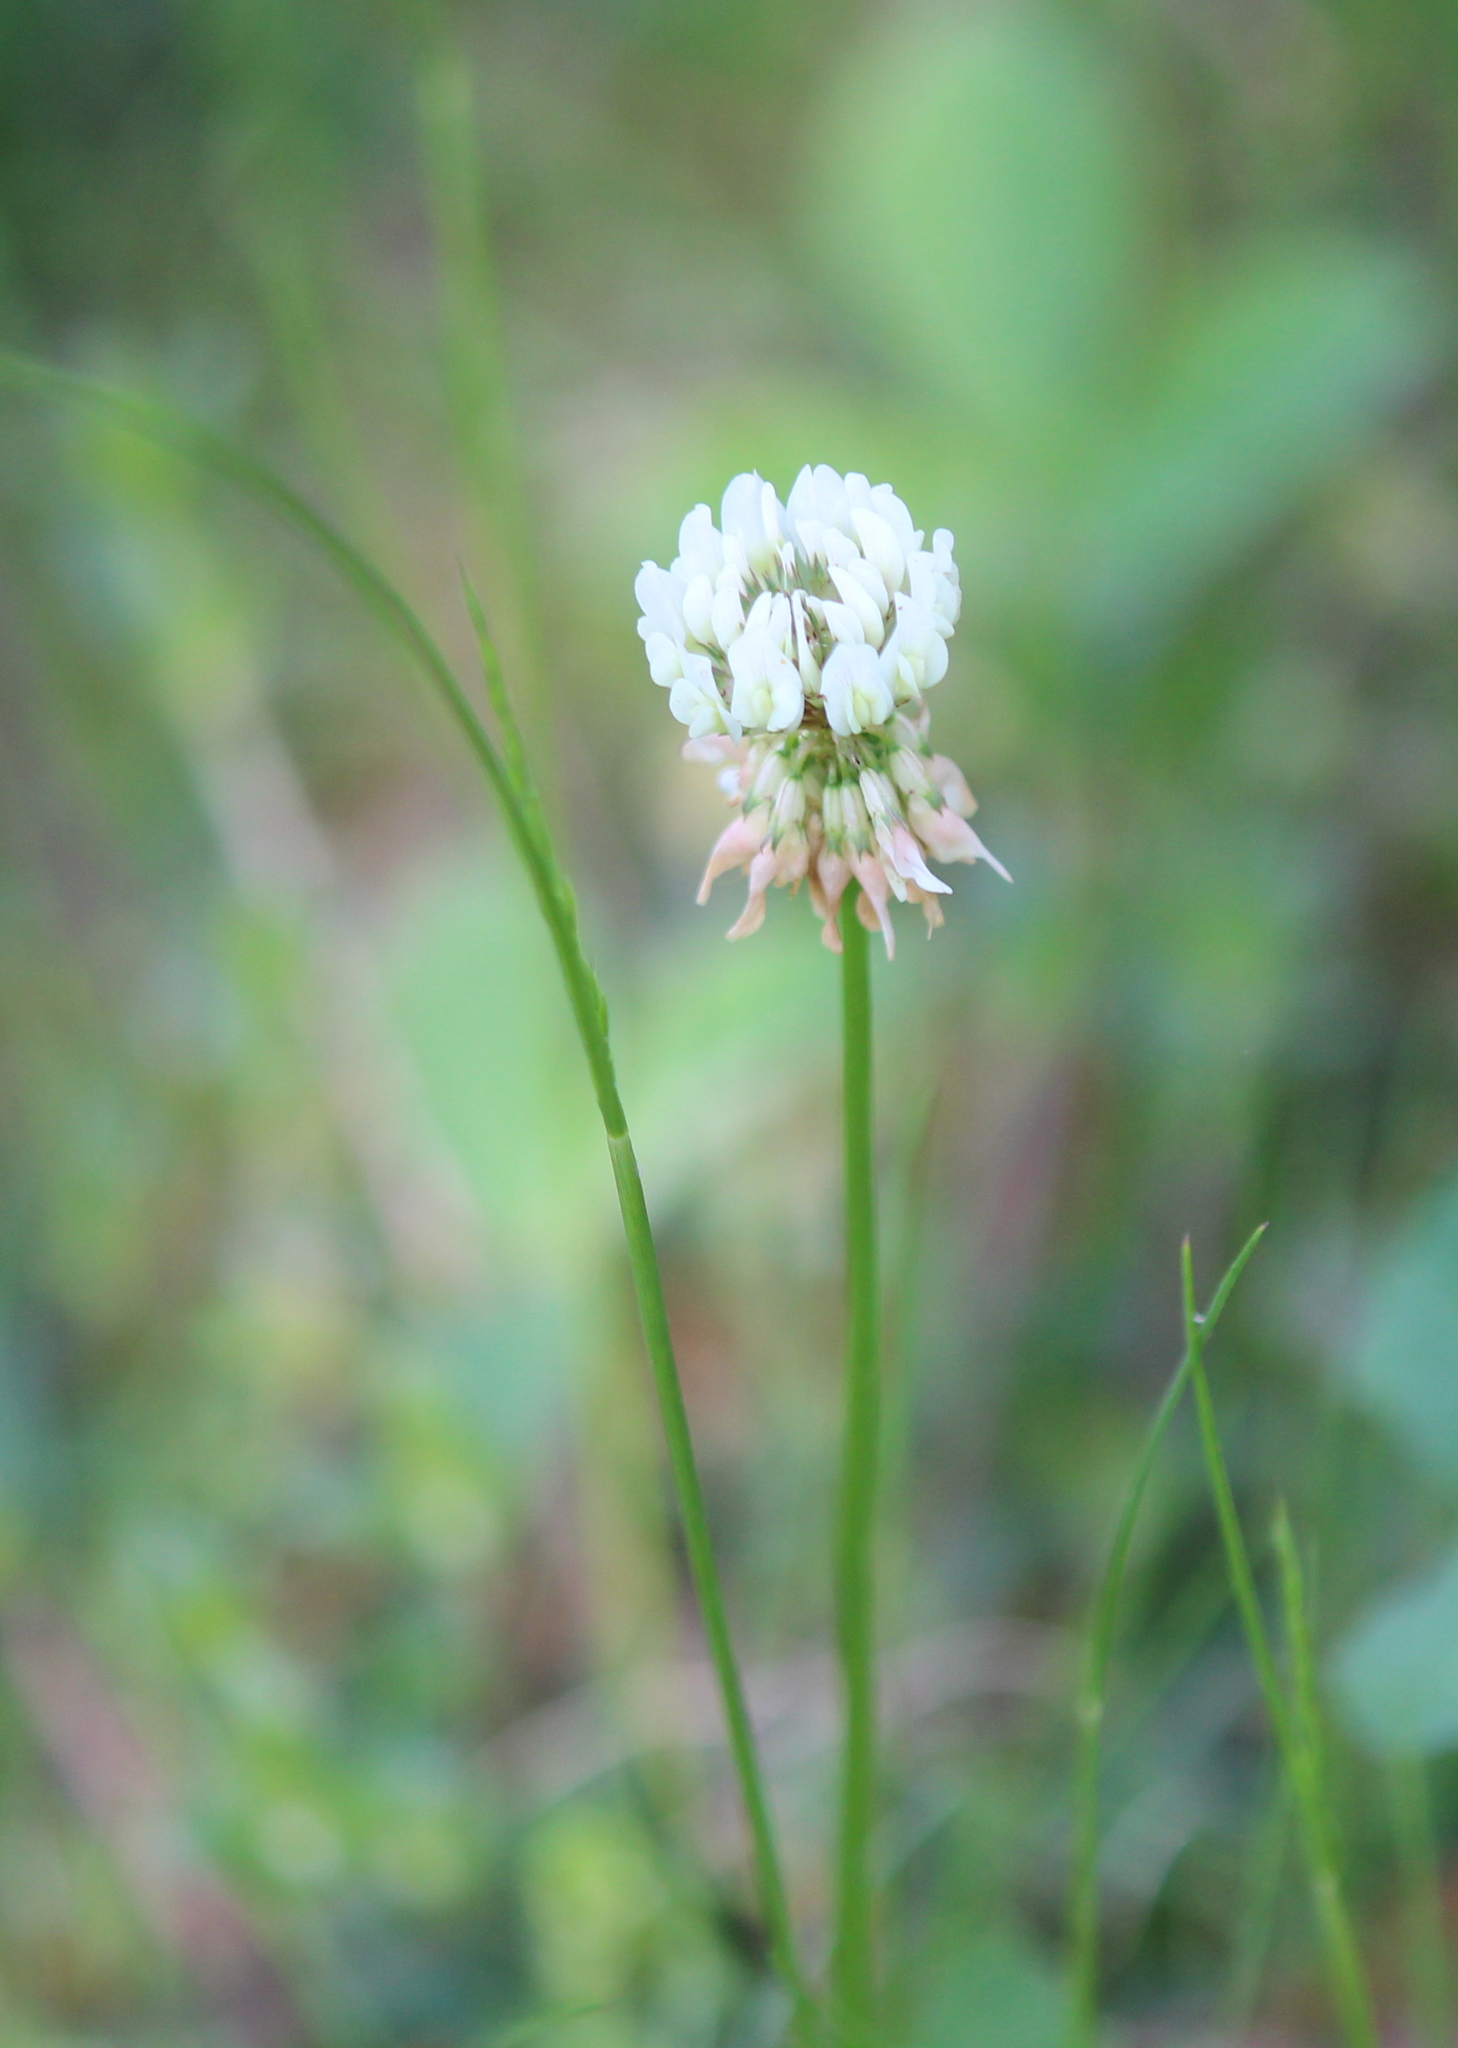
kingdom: Plantae
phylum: Tracheophyta
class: Magnoliopsida
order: Fabales
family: Fabaceae
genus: Trifolium
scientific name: Trifolium repens
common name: White clover
